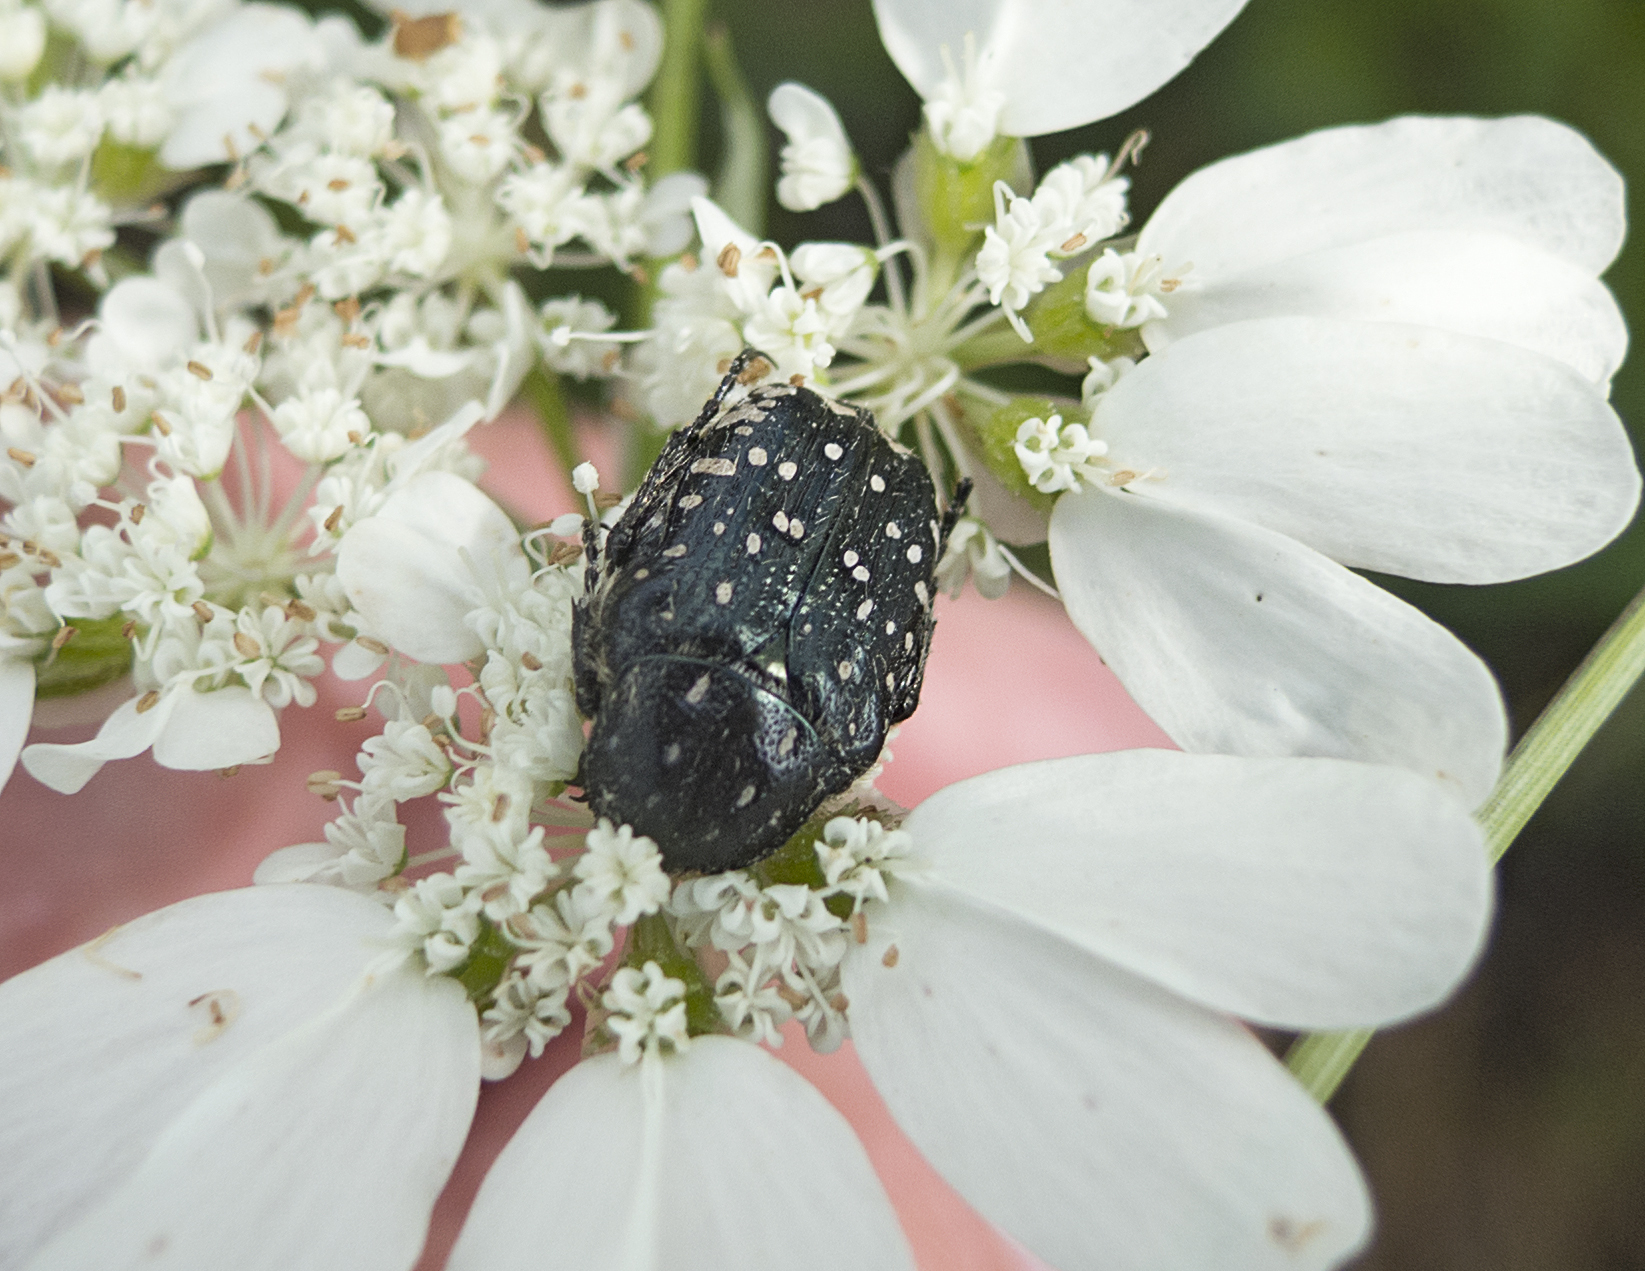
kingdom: Animalia
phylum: Arthropoda
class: Insecta
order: Coleoptera
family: Scarabaeidae
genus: Oxythyrea
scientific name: Oxythyrea funesta
